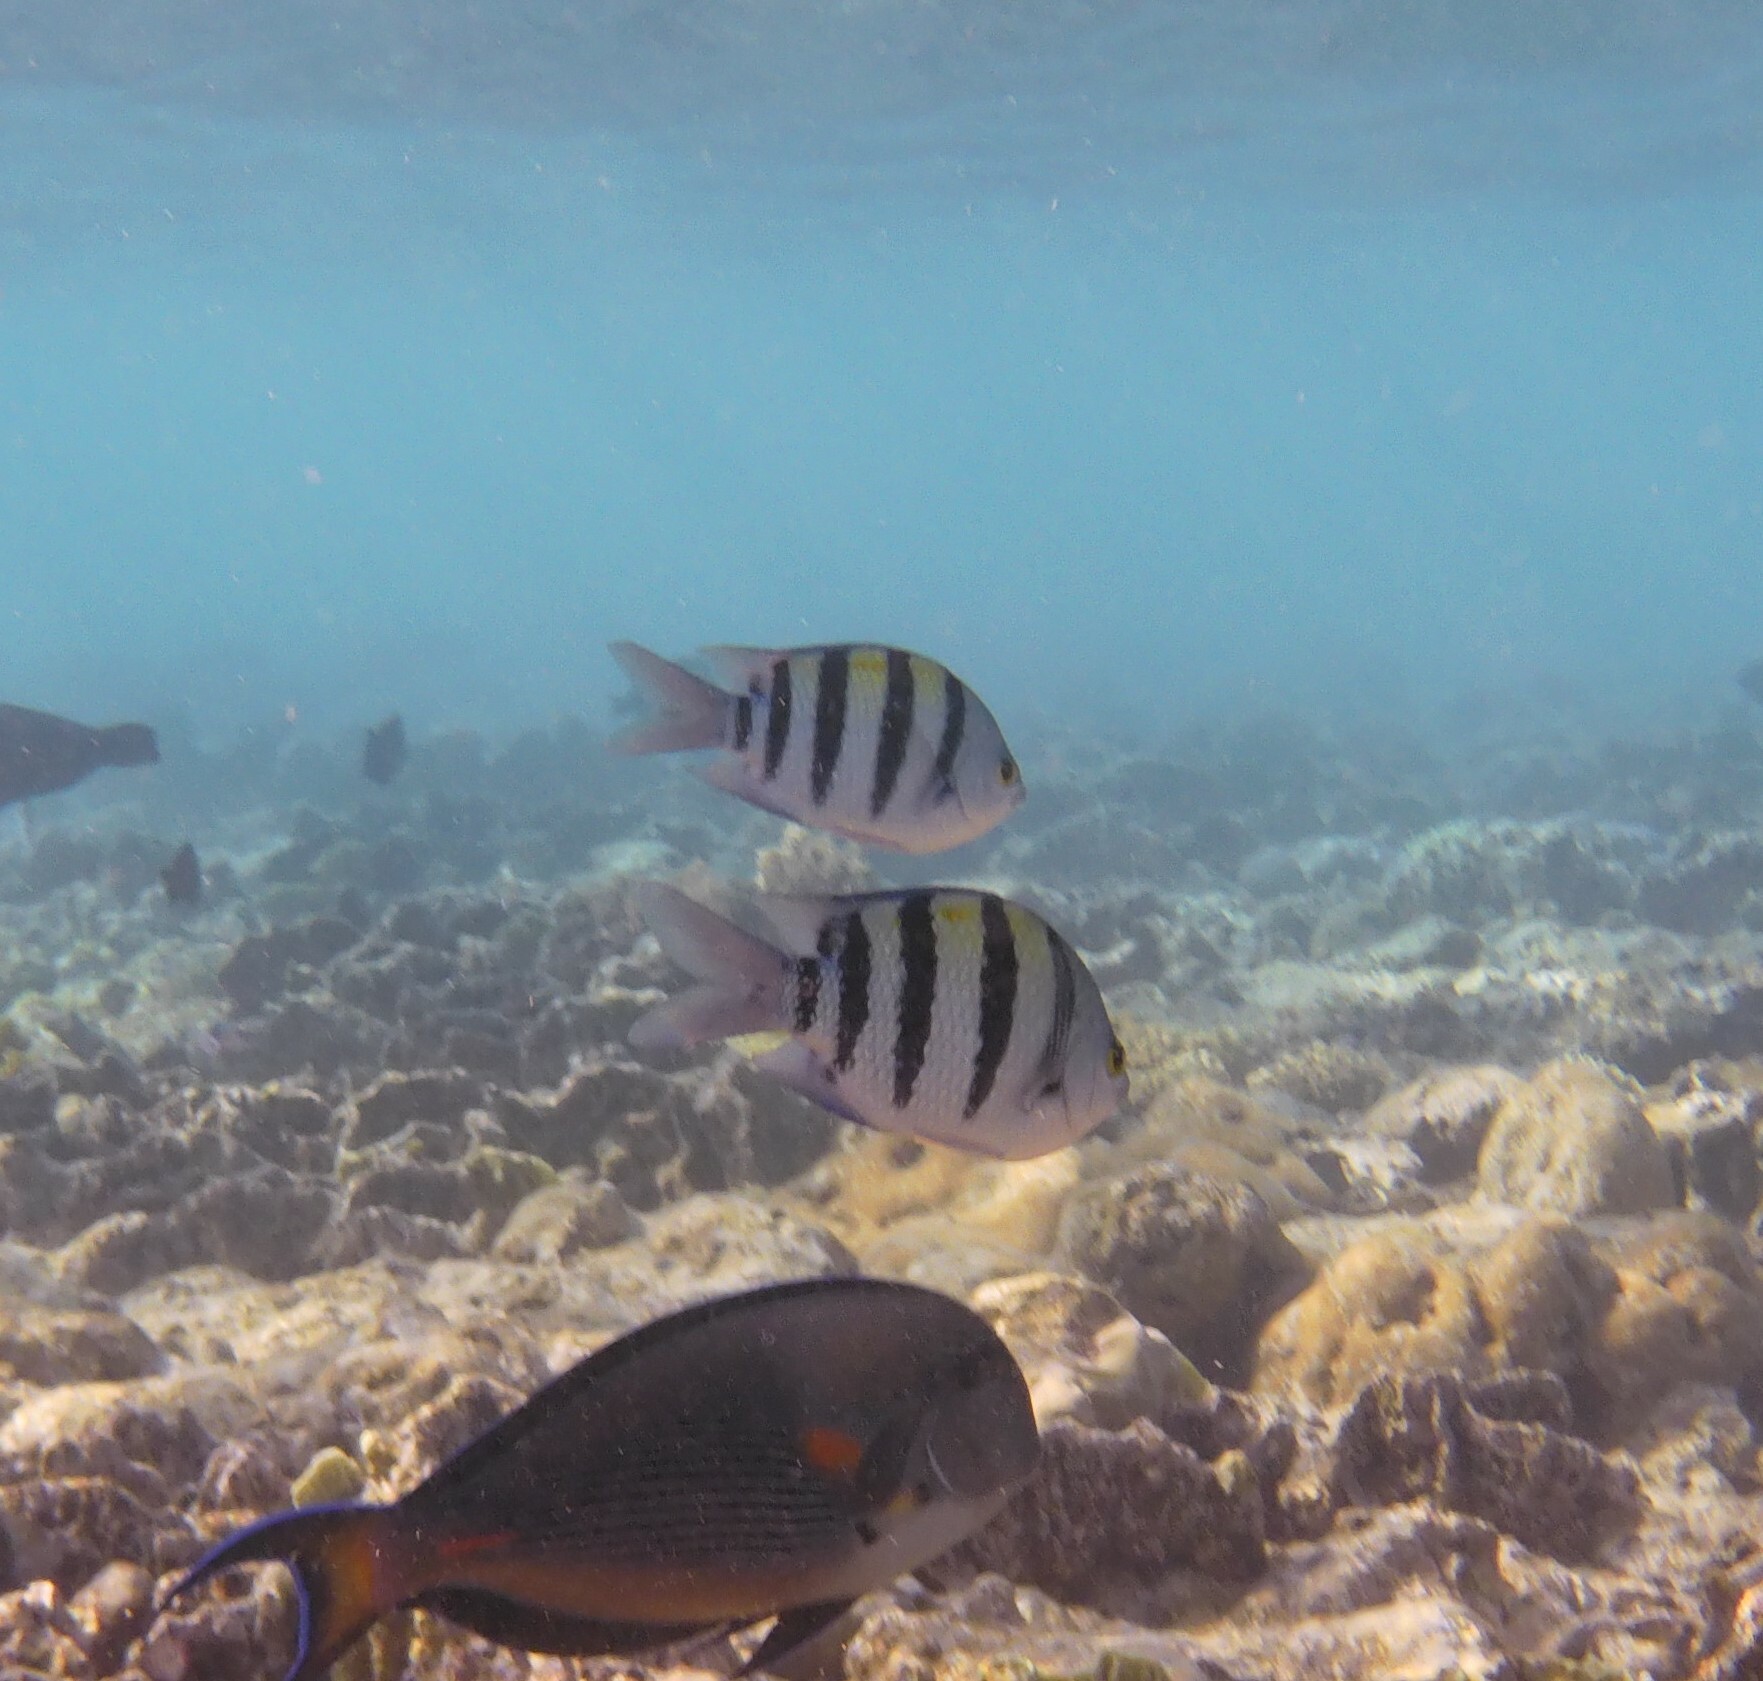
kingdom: Animalia
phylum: Chordata
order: Perciformes
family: Pomacentridae
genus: Abudefduf
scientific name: Abudefduf vaigiensis
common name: Indo-pacific sergeant
